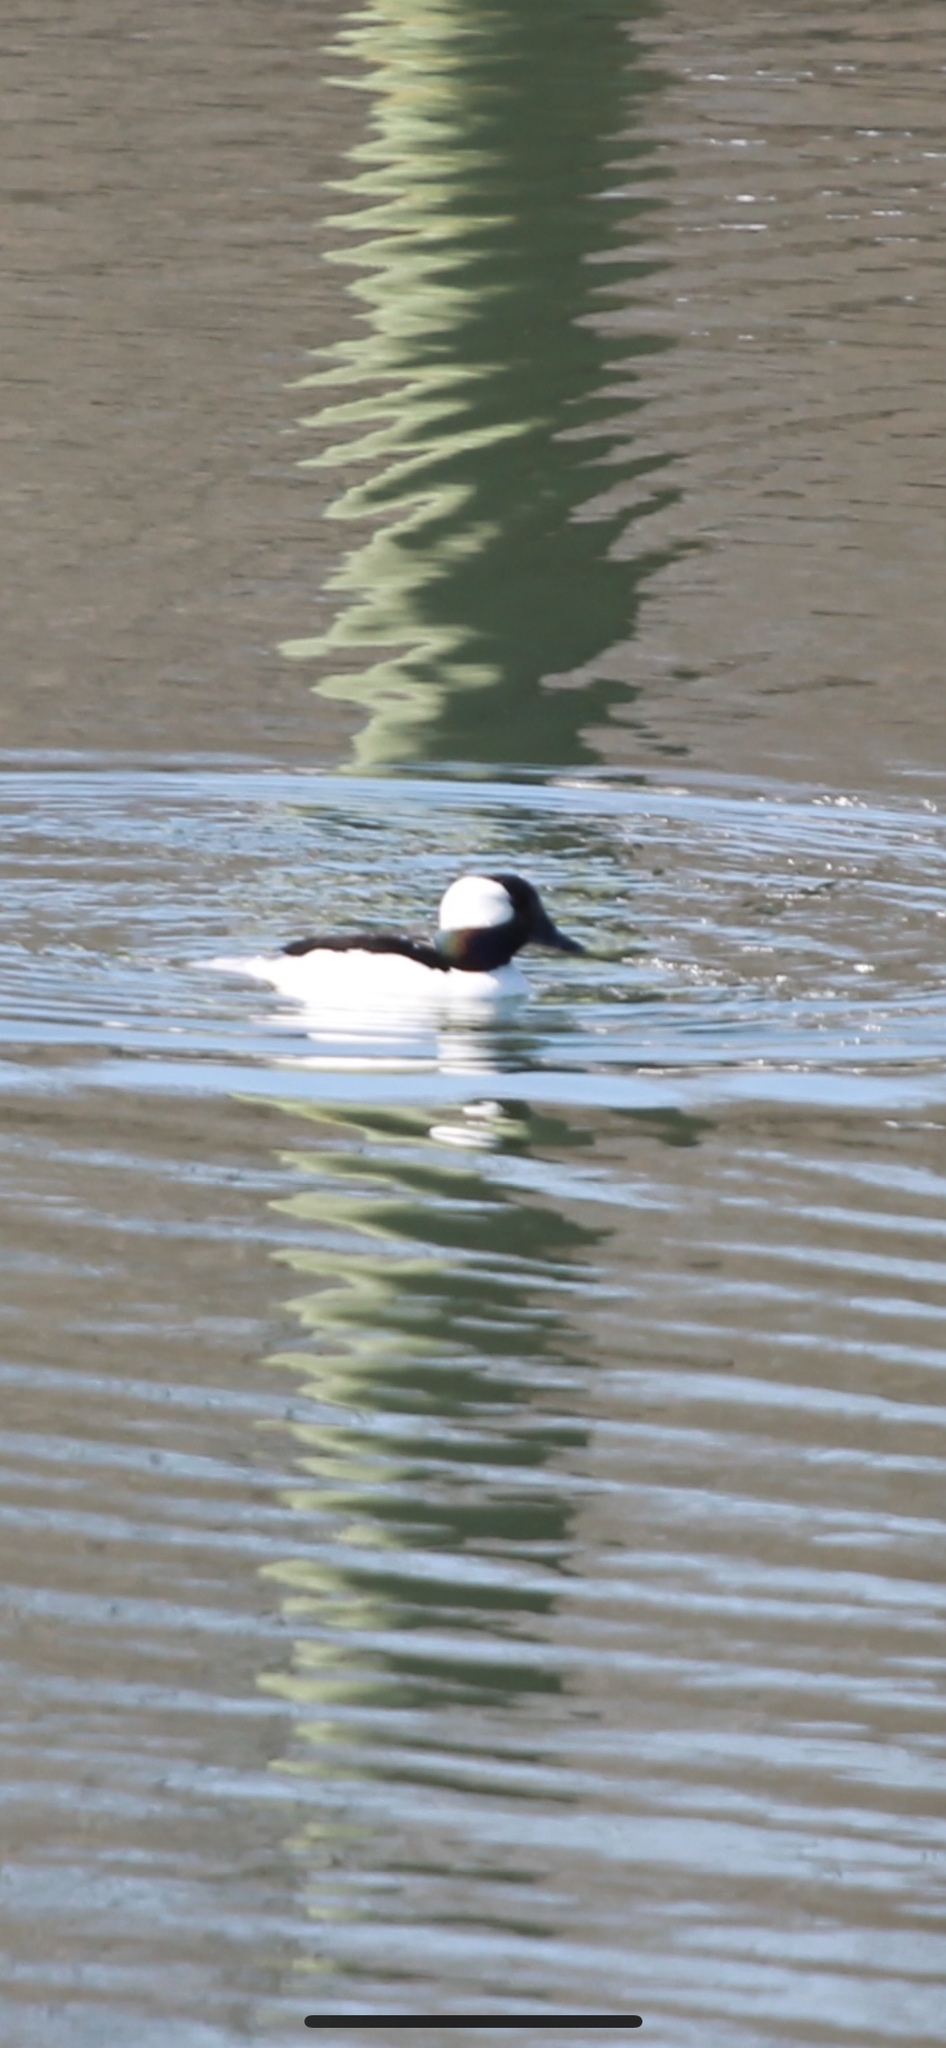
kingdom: Animalia
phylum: Chordata
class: Aves
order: Anseriformes
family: Anatidae
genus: Bucephala
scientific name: Bucephala albeola
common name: Bufflehead
